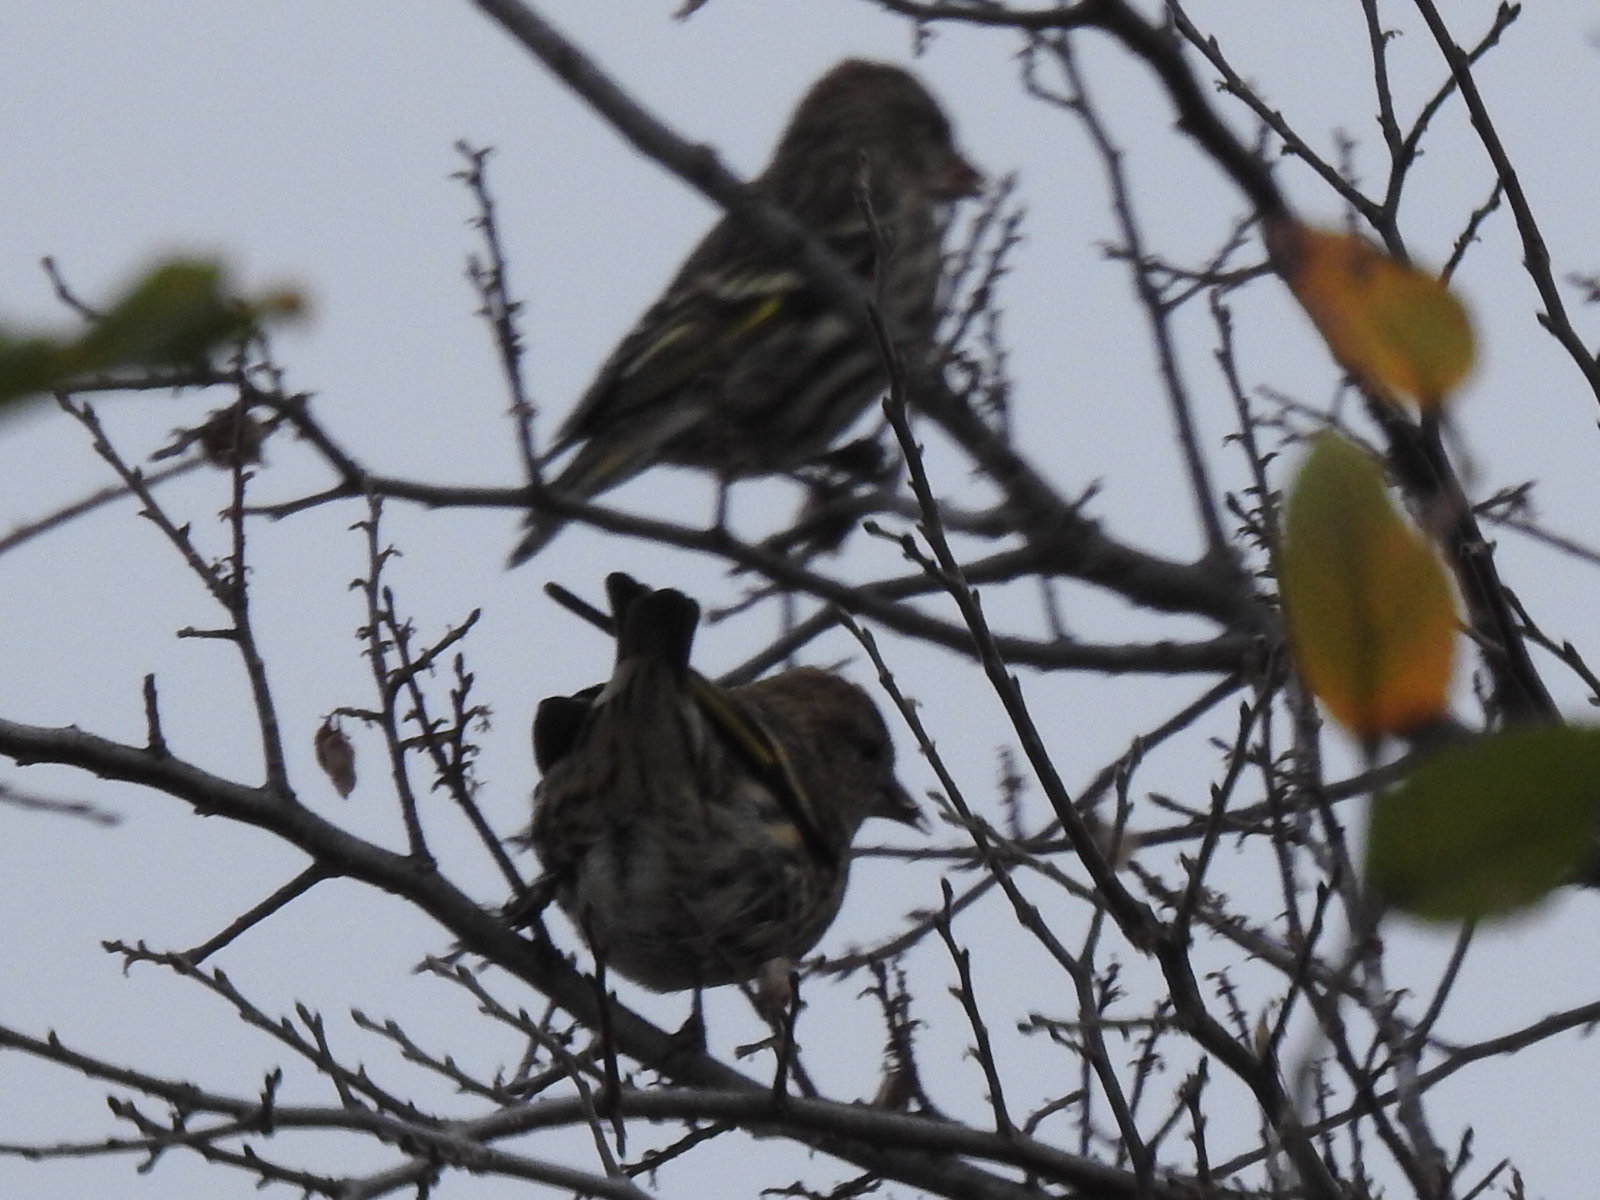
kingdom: Animalia
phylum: Chordata
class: Aves
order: Passeriformes
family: Fringillidae
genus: Spinus
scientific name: Spinus pinus
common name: Pine siskin
